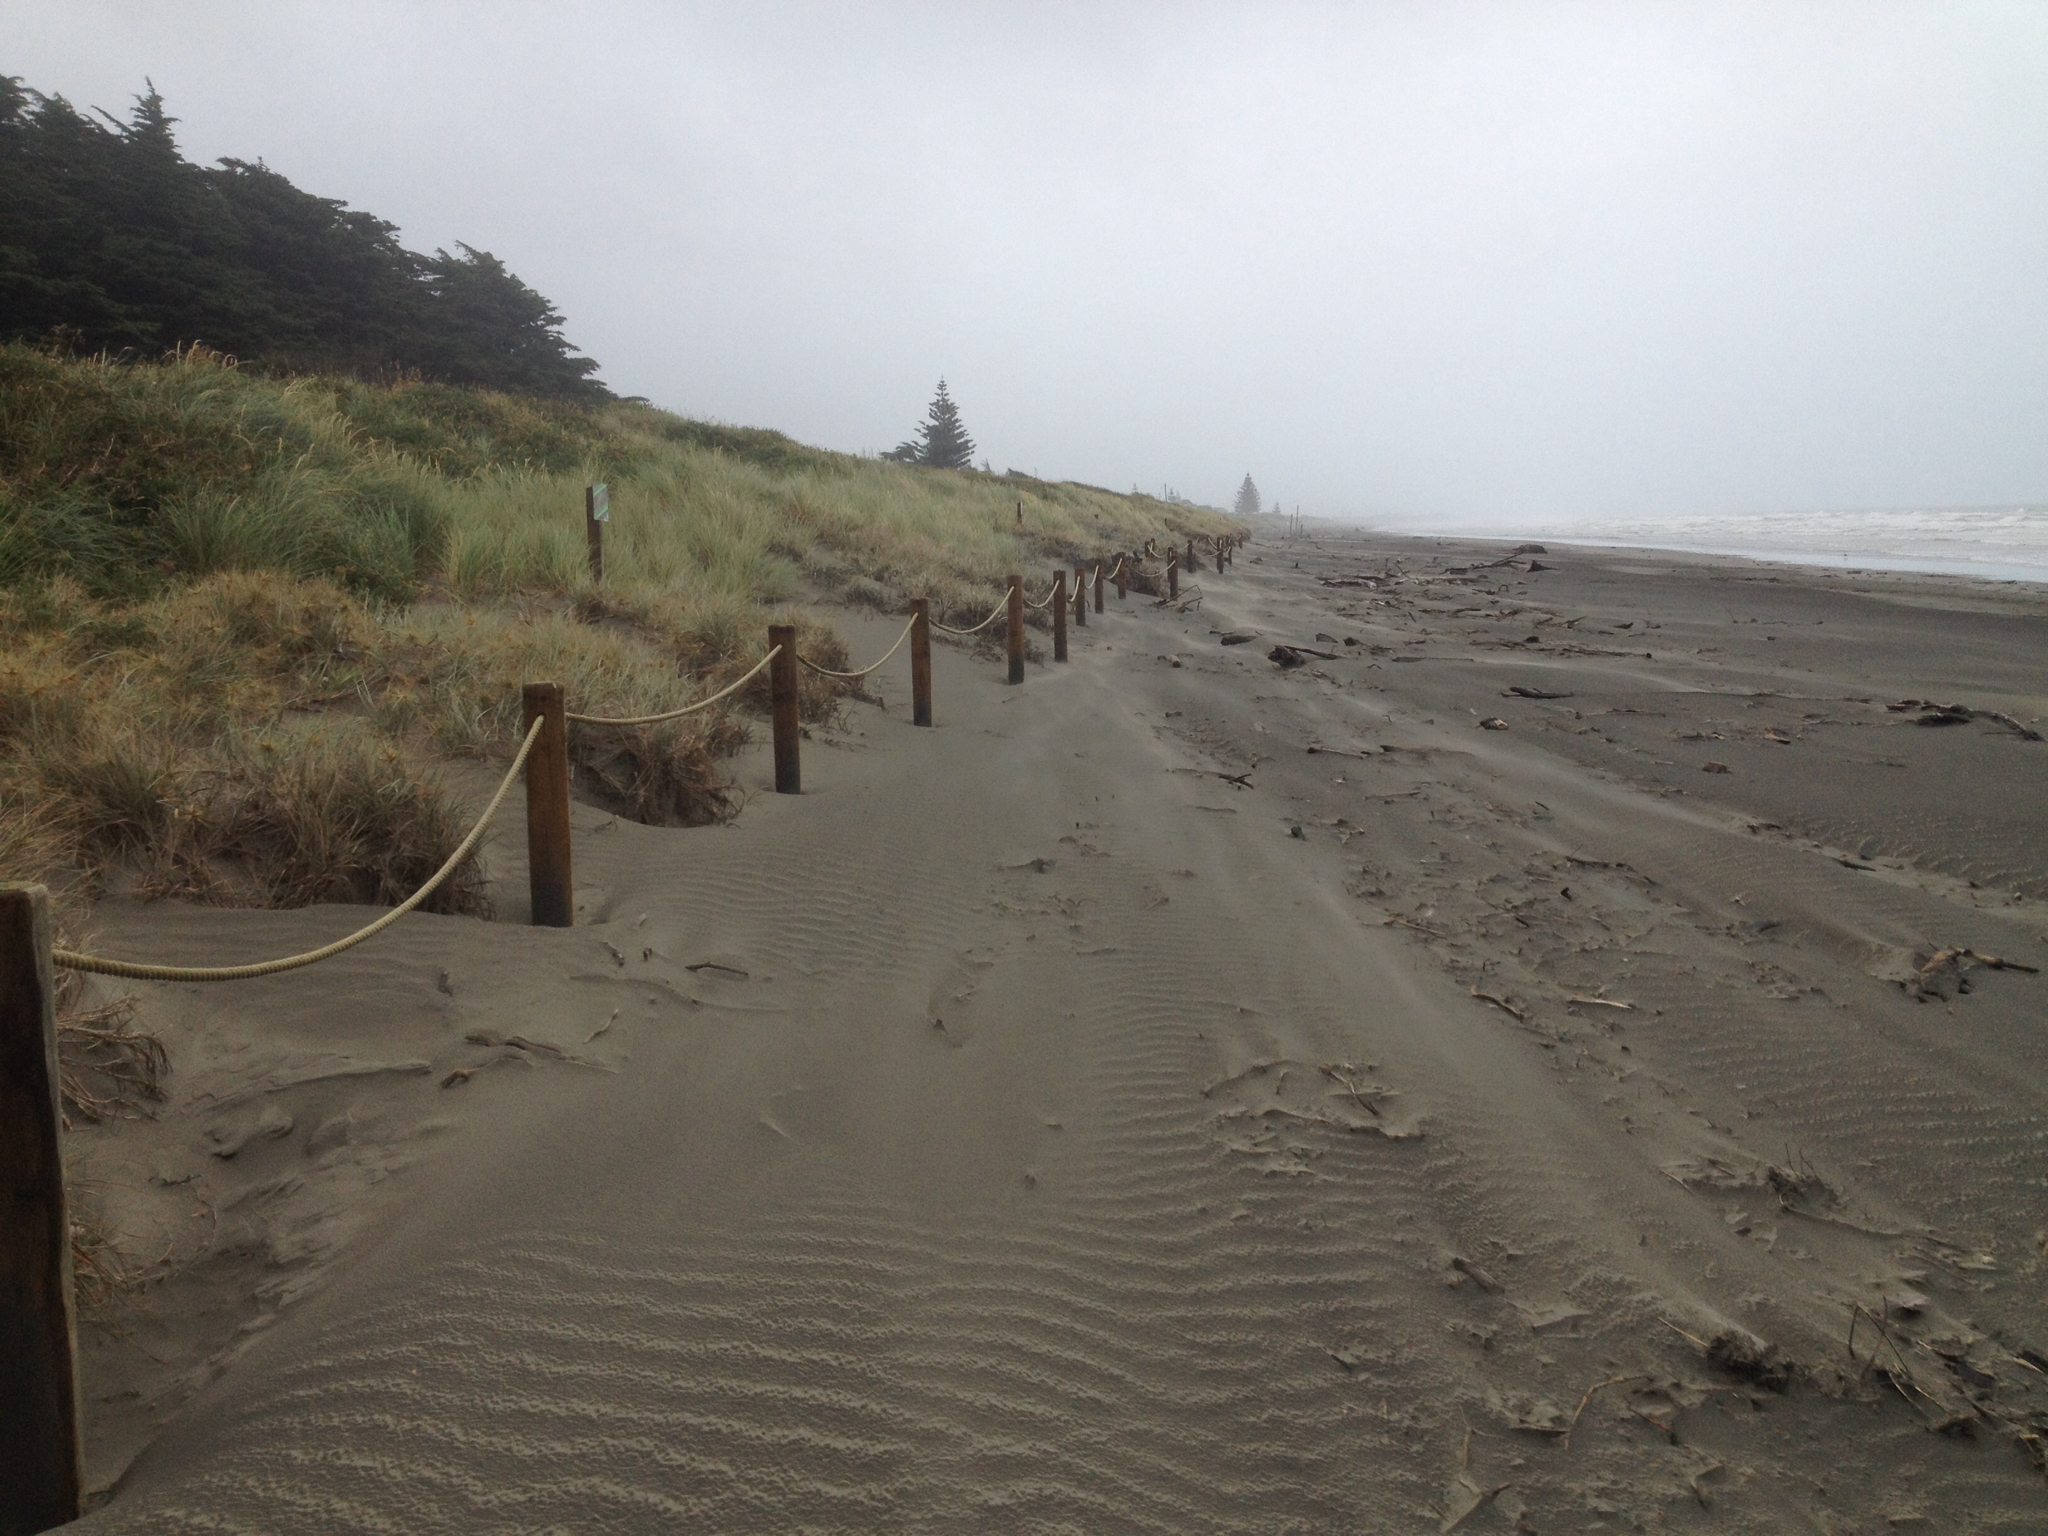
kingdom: Plantae
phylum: Tracheophyta
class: Liliopsida
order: Poales
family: Poaceae
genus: Spinifex
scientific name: Spinifex sericeus
